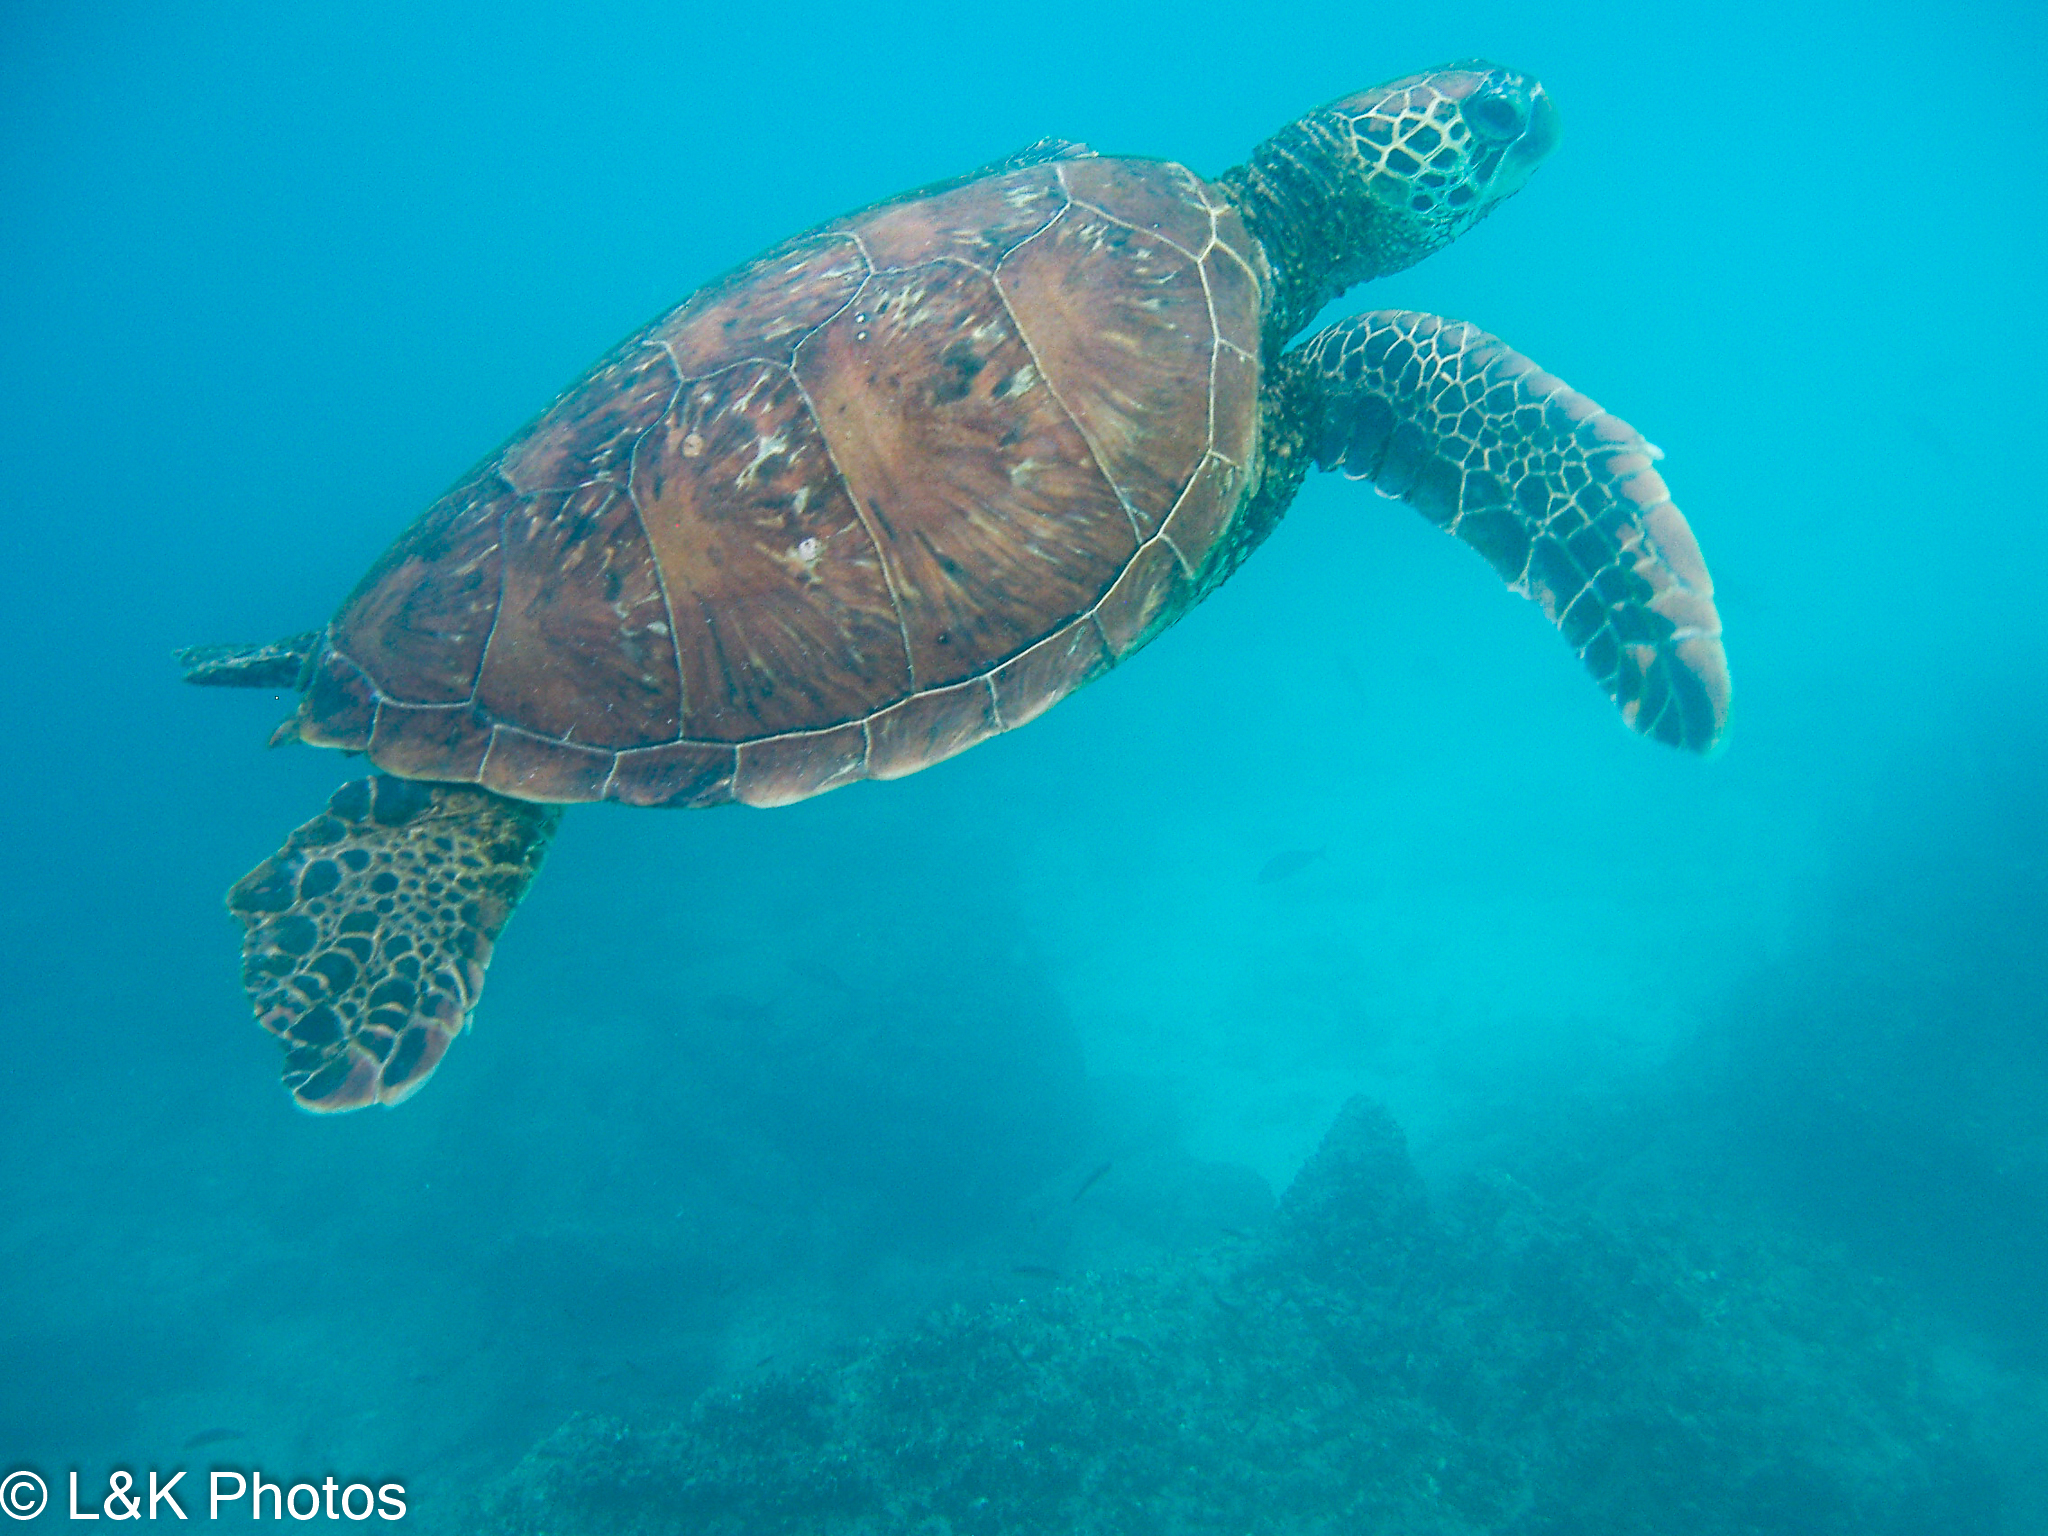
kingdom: Animalia
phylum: Chordata
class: Testudines
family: Cheloniidae
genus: Chelonia
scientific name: Chelonia mydas
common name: Green turtle
